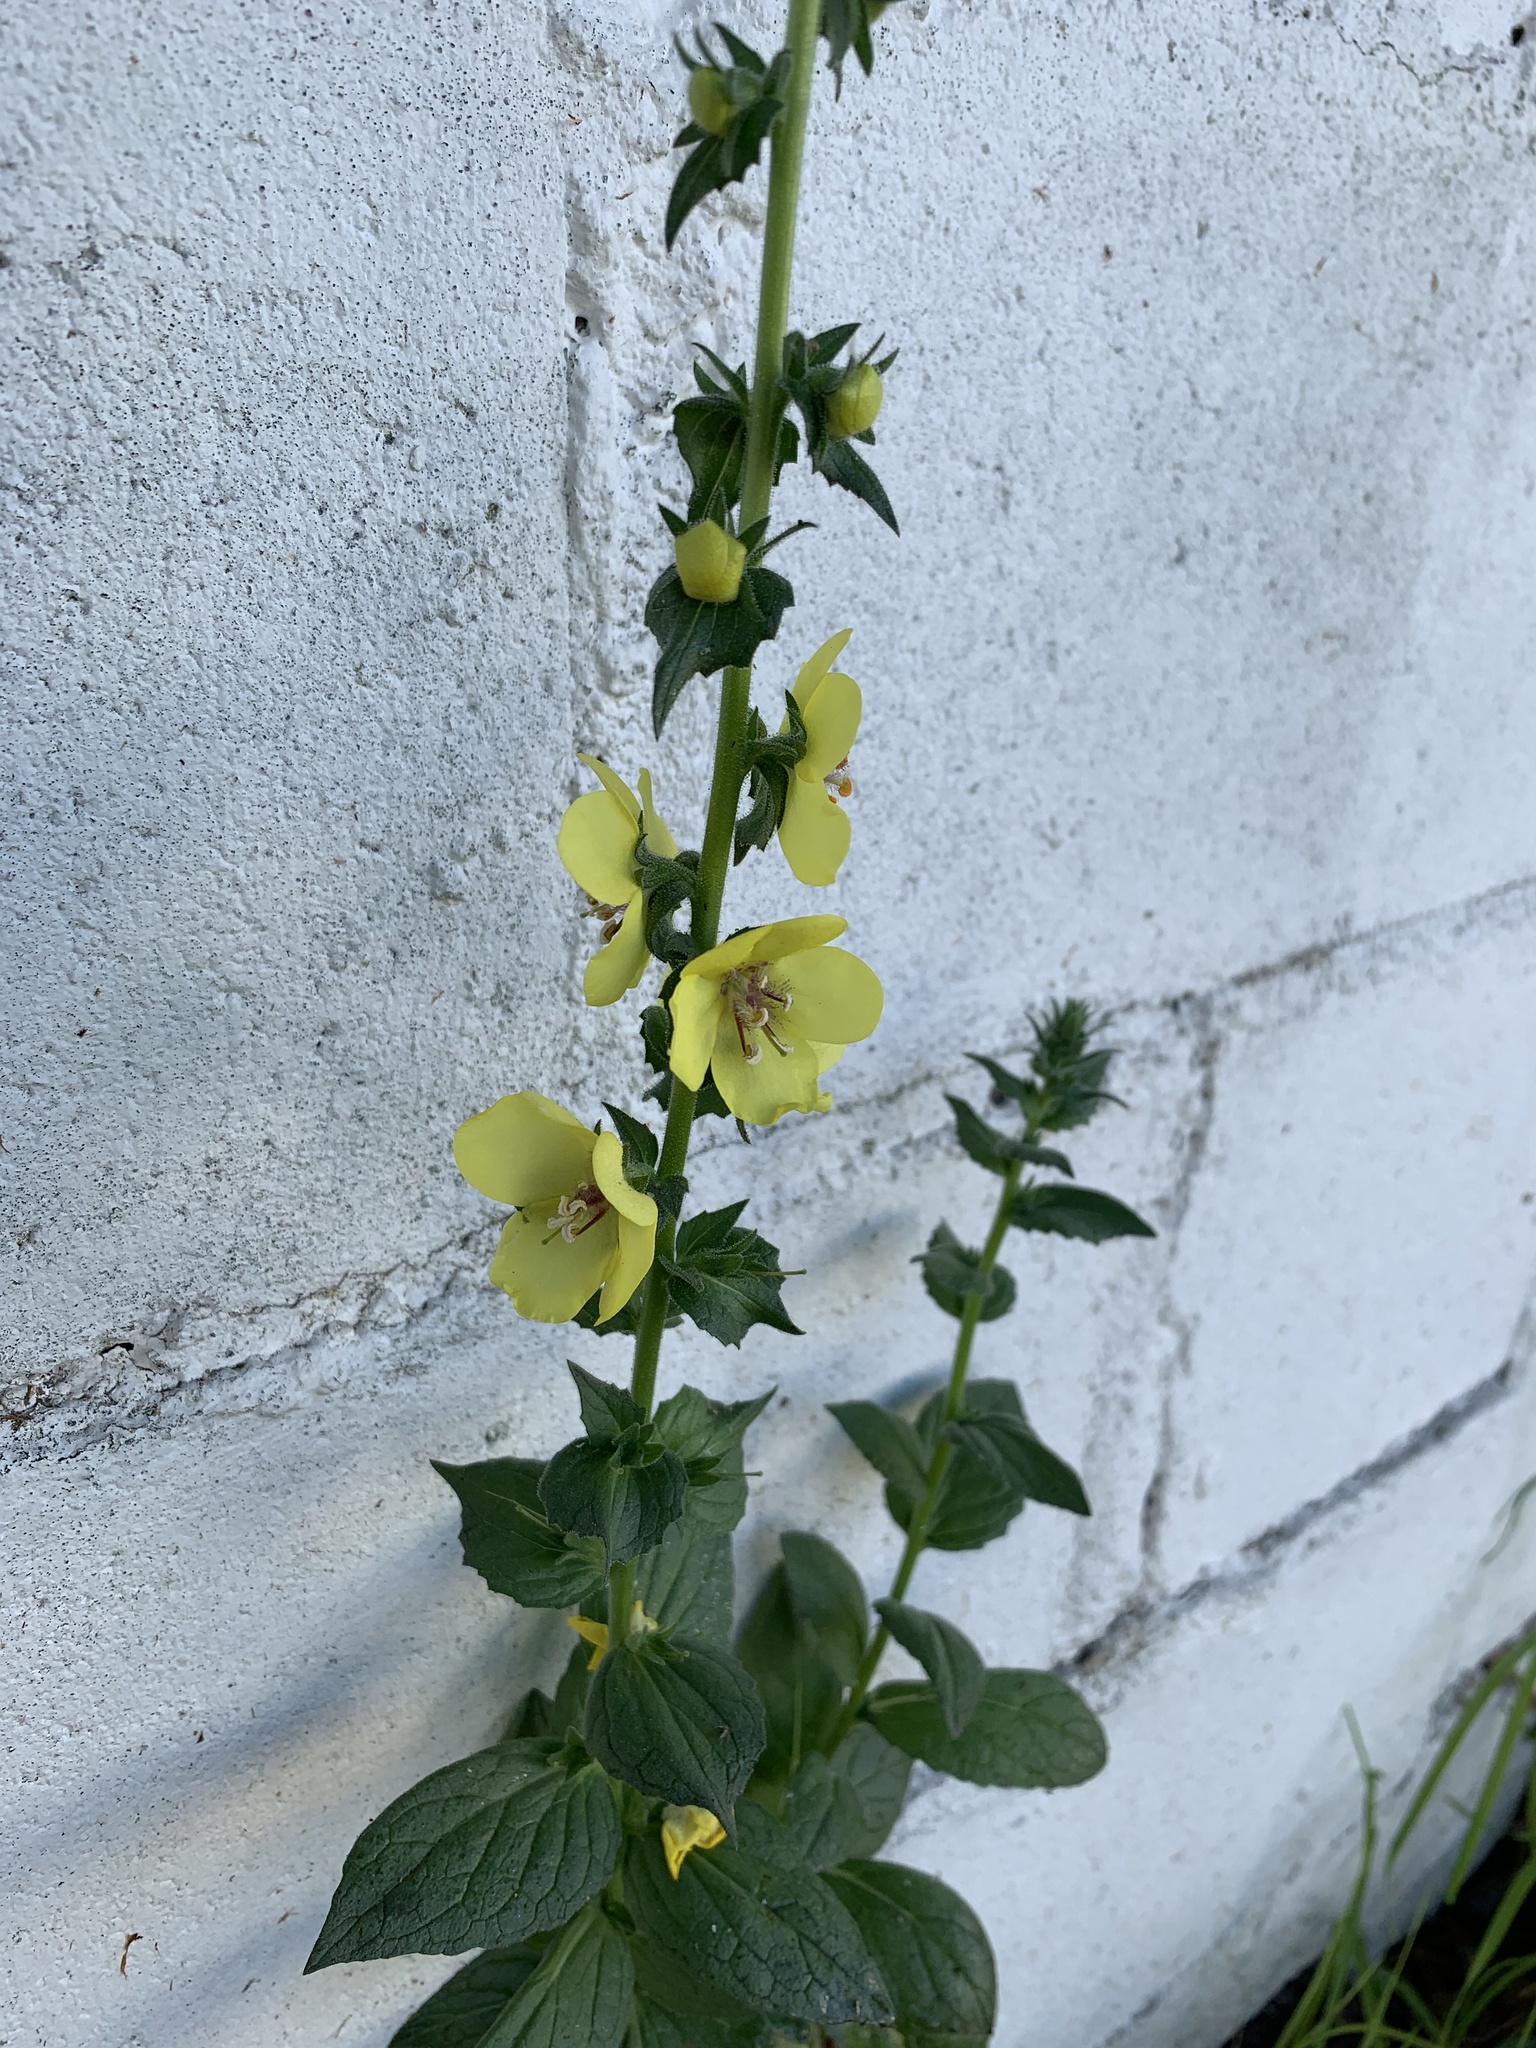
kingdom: Plantae
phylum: Tracheophyta
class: Magnoliopsida
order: Lamiales
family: Scrophulariaceae
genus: Verbascum
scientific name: Verbascum virgatum
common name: Twiggy mullein
